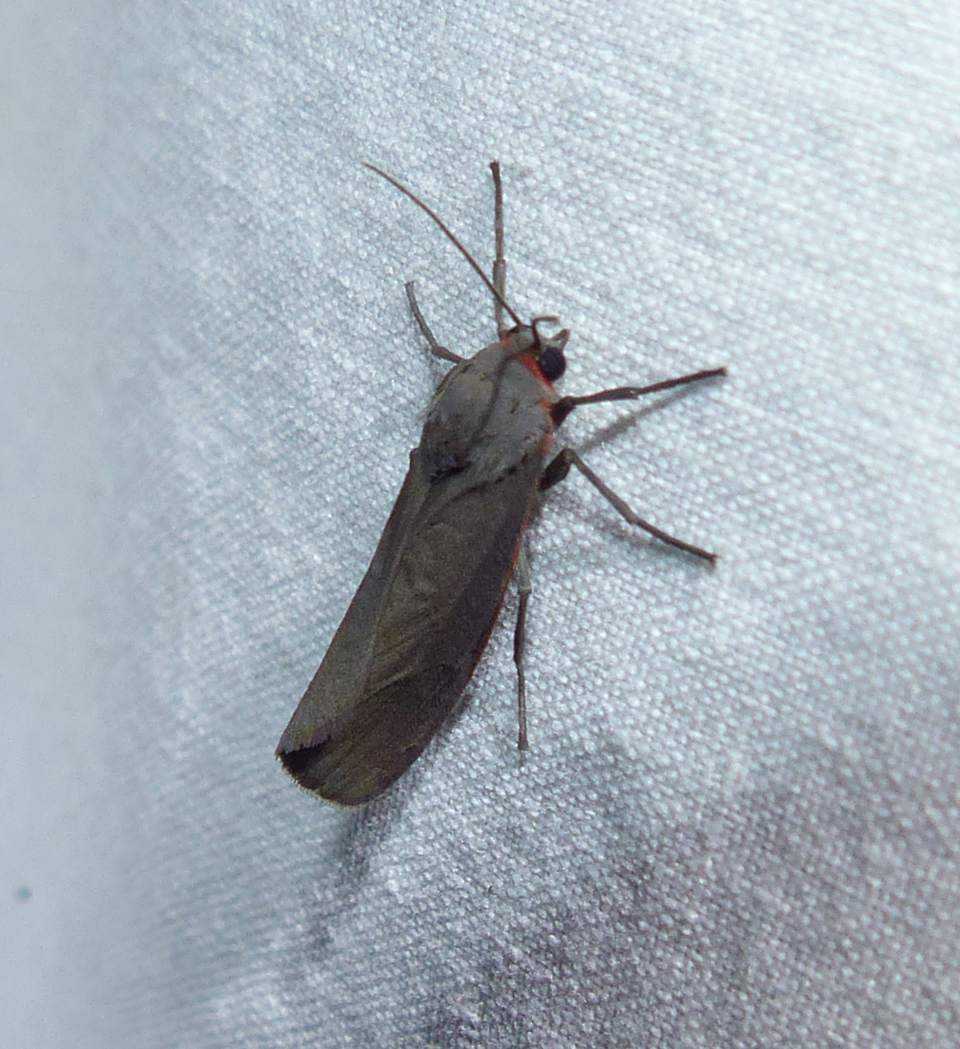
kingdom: Animalia
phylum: Arthropoda
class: Insecta
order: Lepidoptera
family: Erebidae
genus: Virbia
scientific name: Virbia laeta
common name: Joyful holomelina moth
